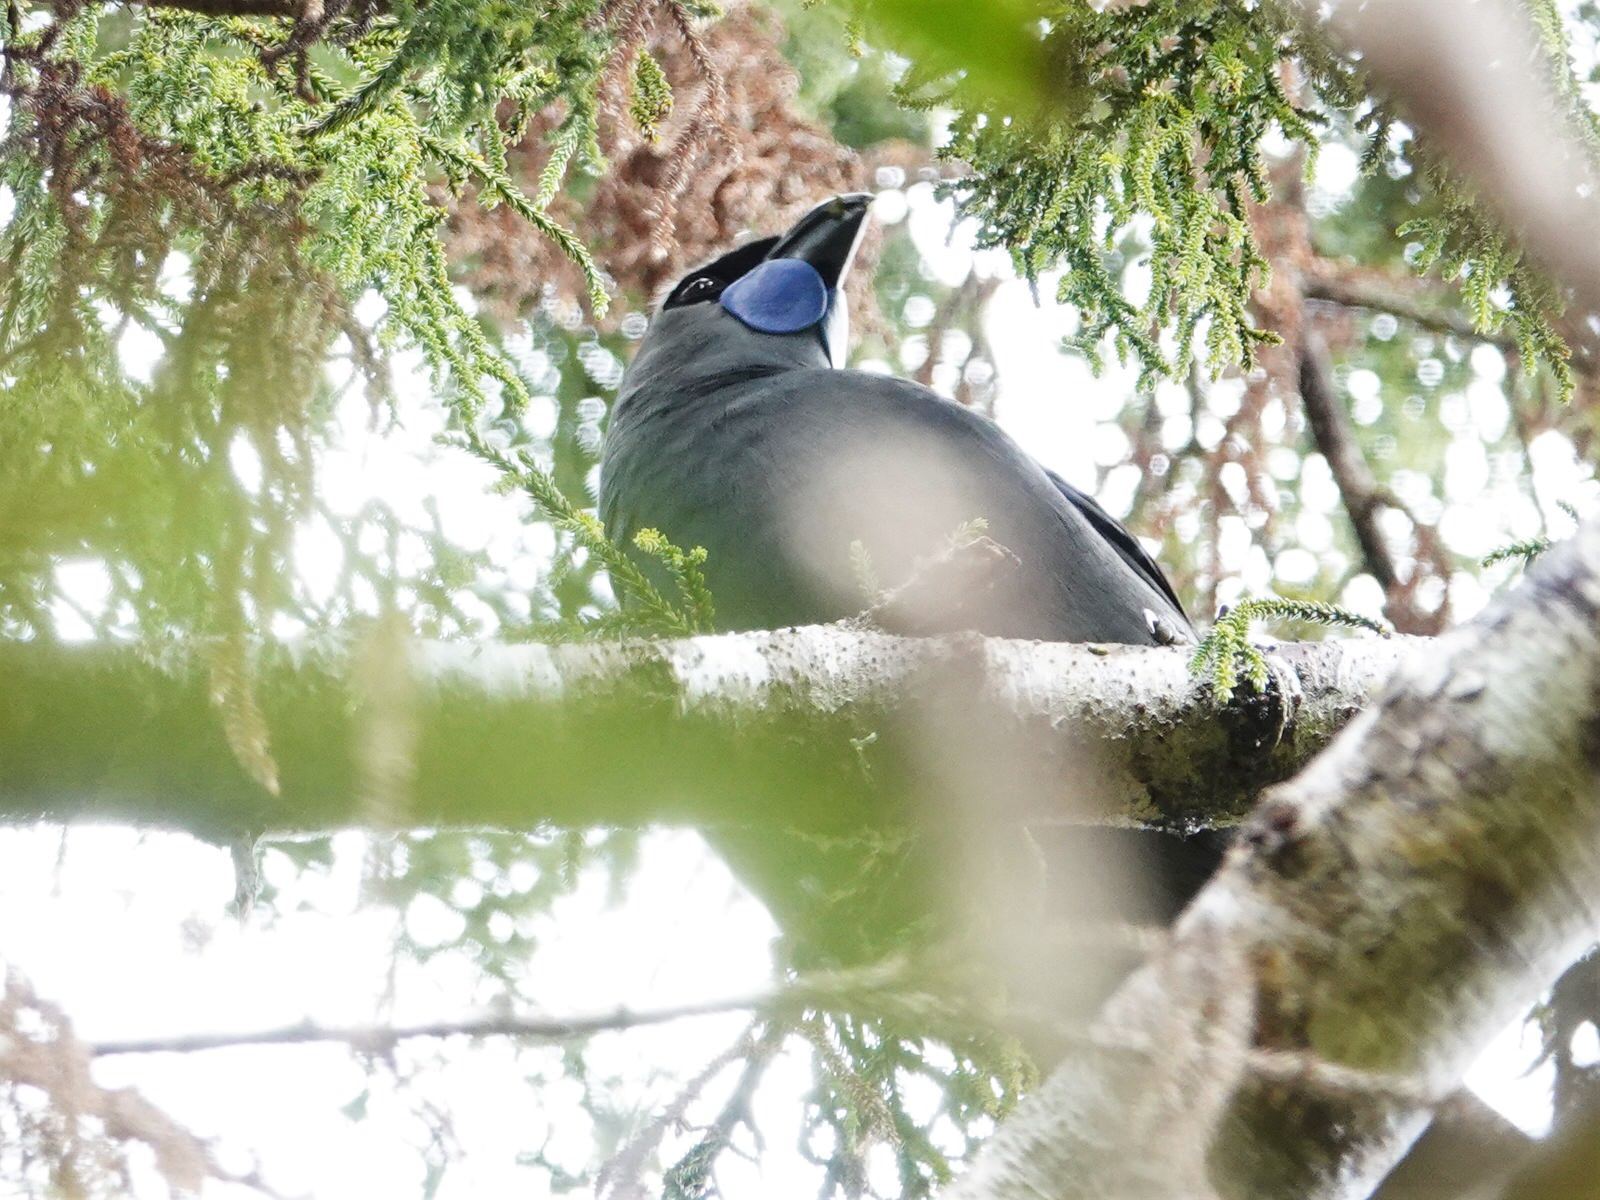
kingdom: Animalia
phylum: Chordata
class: Aves
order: Passeriformes
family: Callaeatidae
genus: Callaeas
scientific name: Callaeas cinereus
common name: South island kokako
